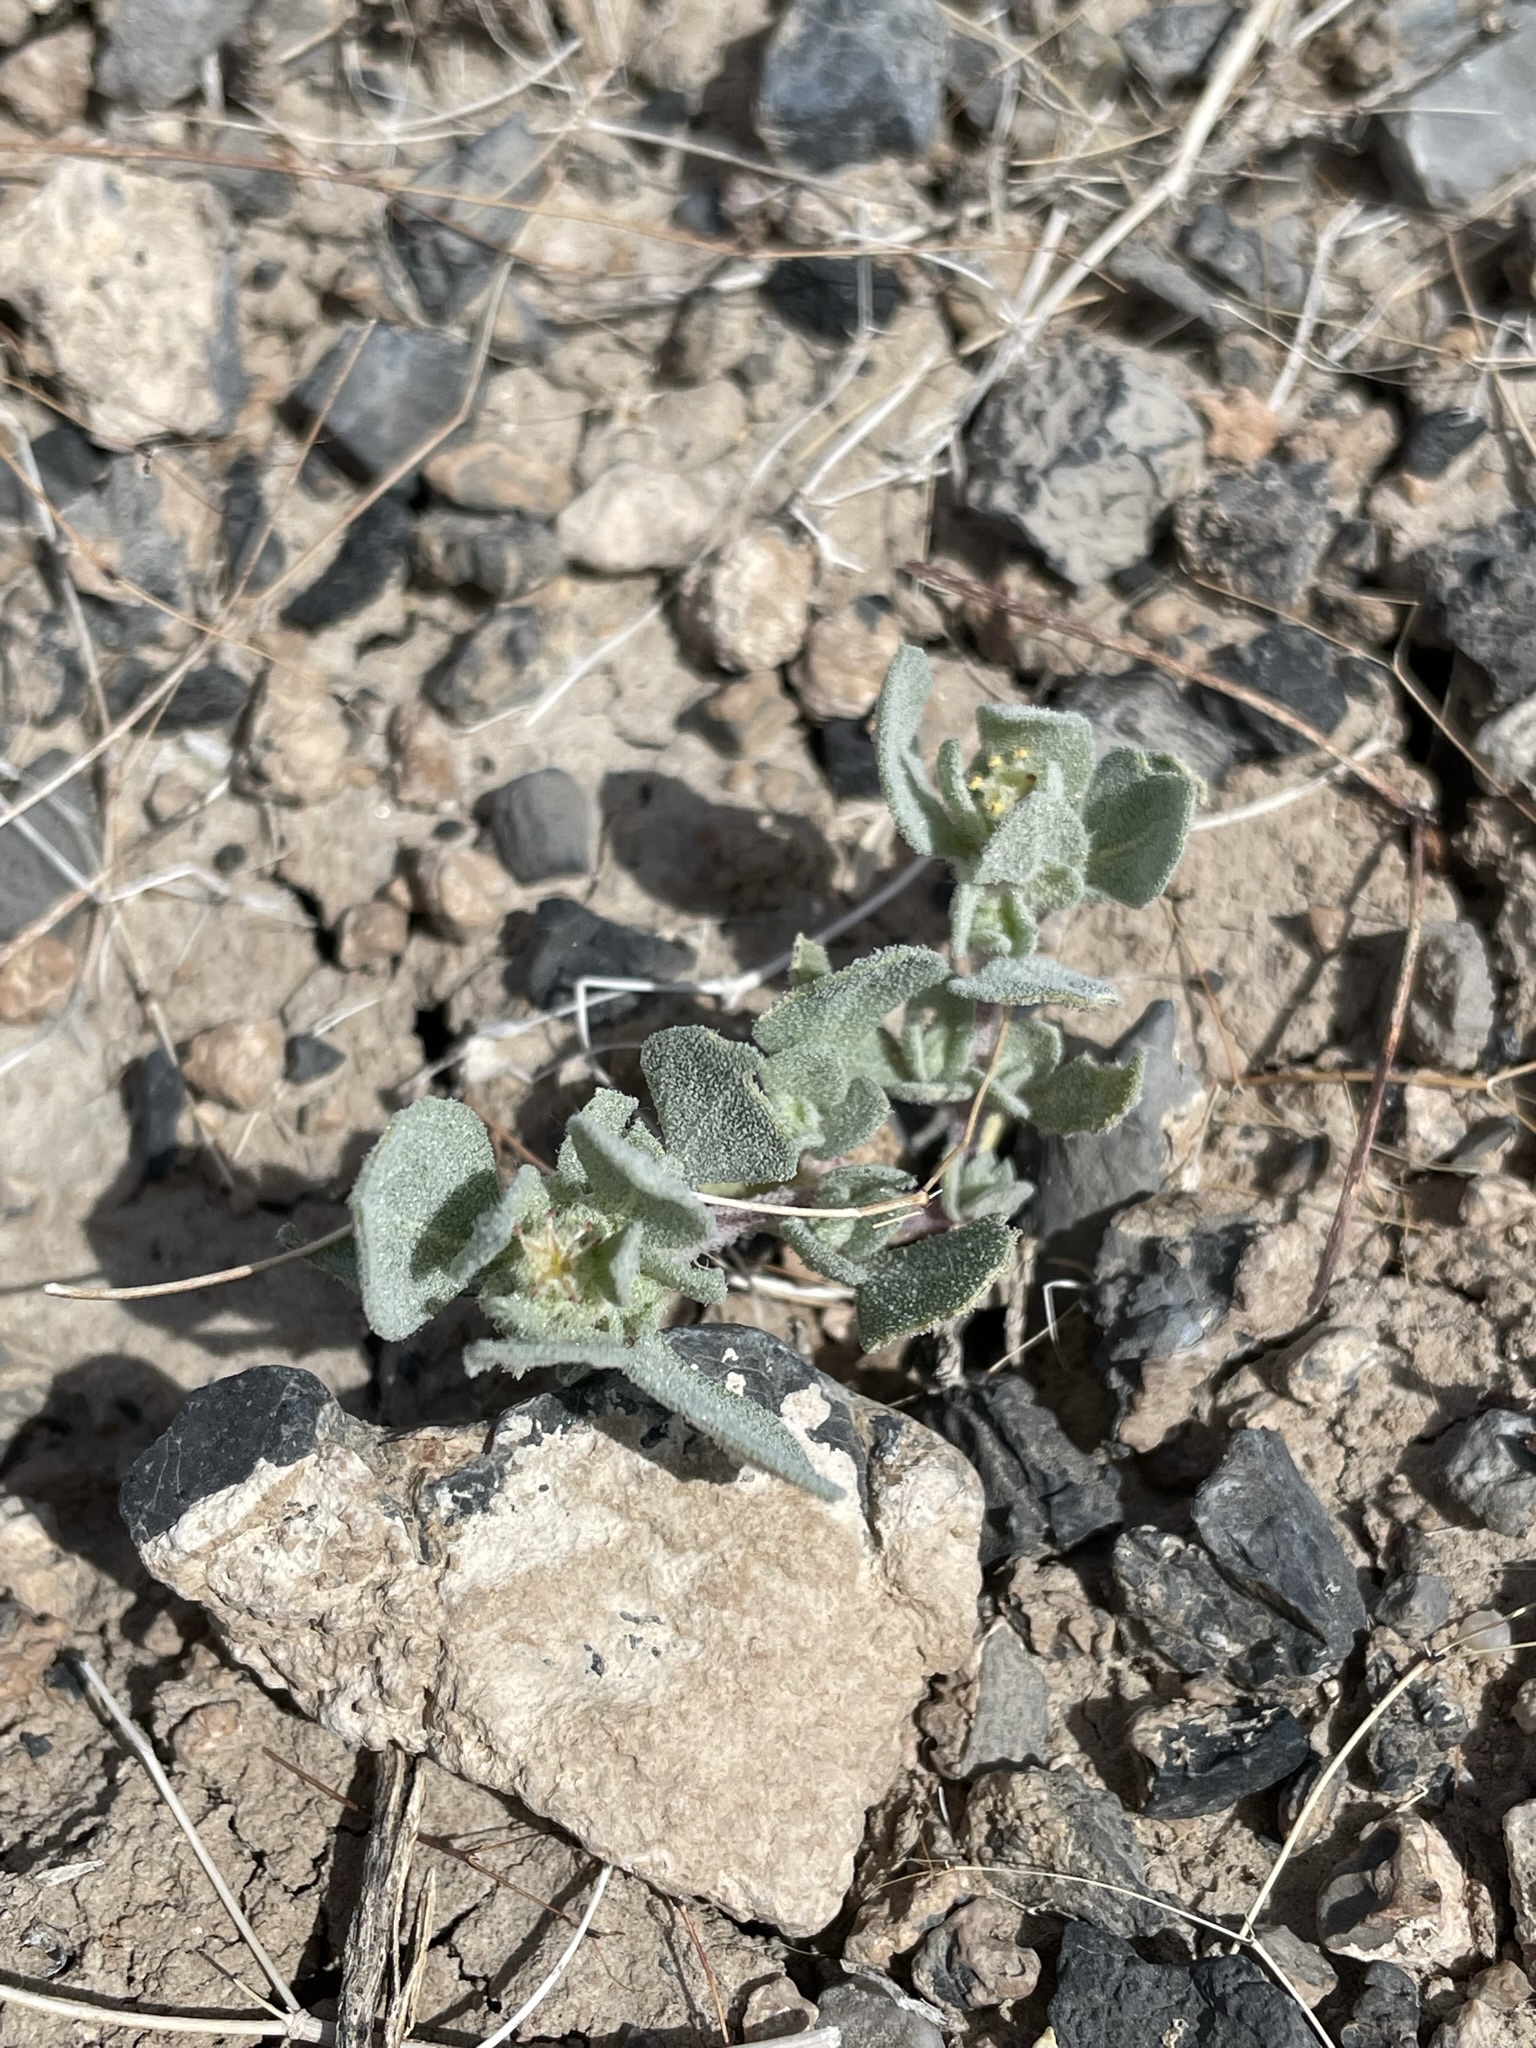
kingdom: Plantae
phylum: Tracheophyta
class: Magnoliopsida
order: Caryophyllales
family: Amaranthaceae
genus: Atriplex
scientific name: Atriplex argentea
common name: Silverscale
